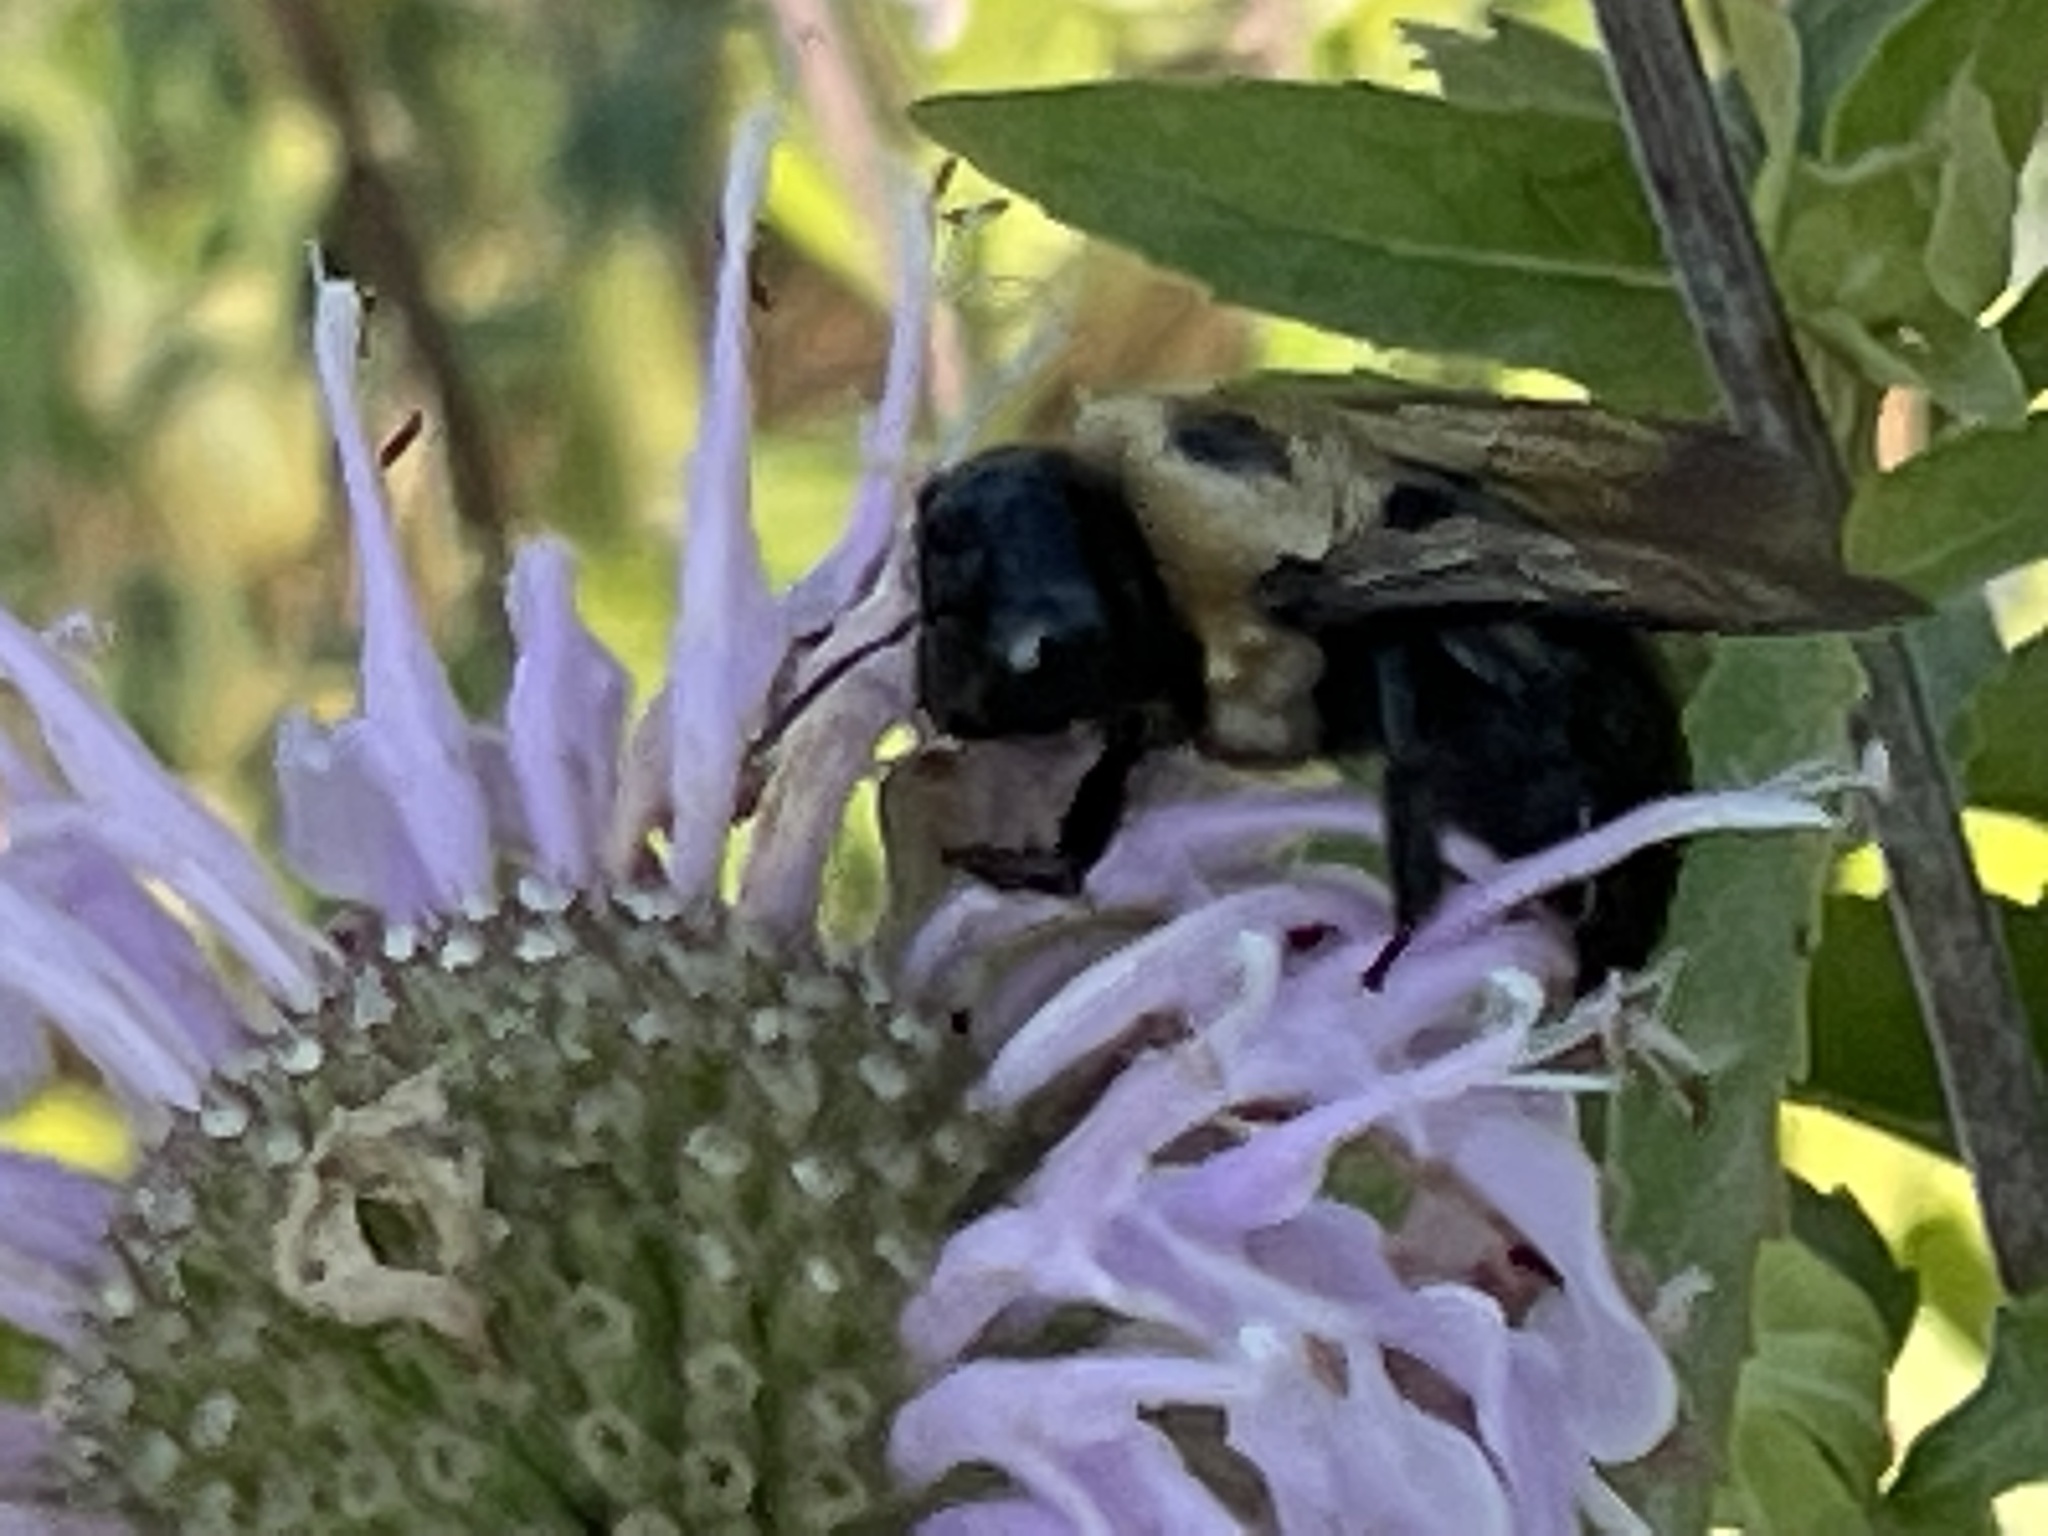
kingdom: Animalia
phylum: Arthropoda
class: Insecta
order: Hymenoptera
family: Apidae
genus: Xylocopa
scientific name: Xylocopa virginica
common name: Carpenter bee
